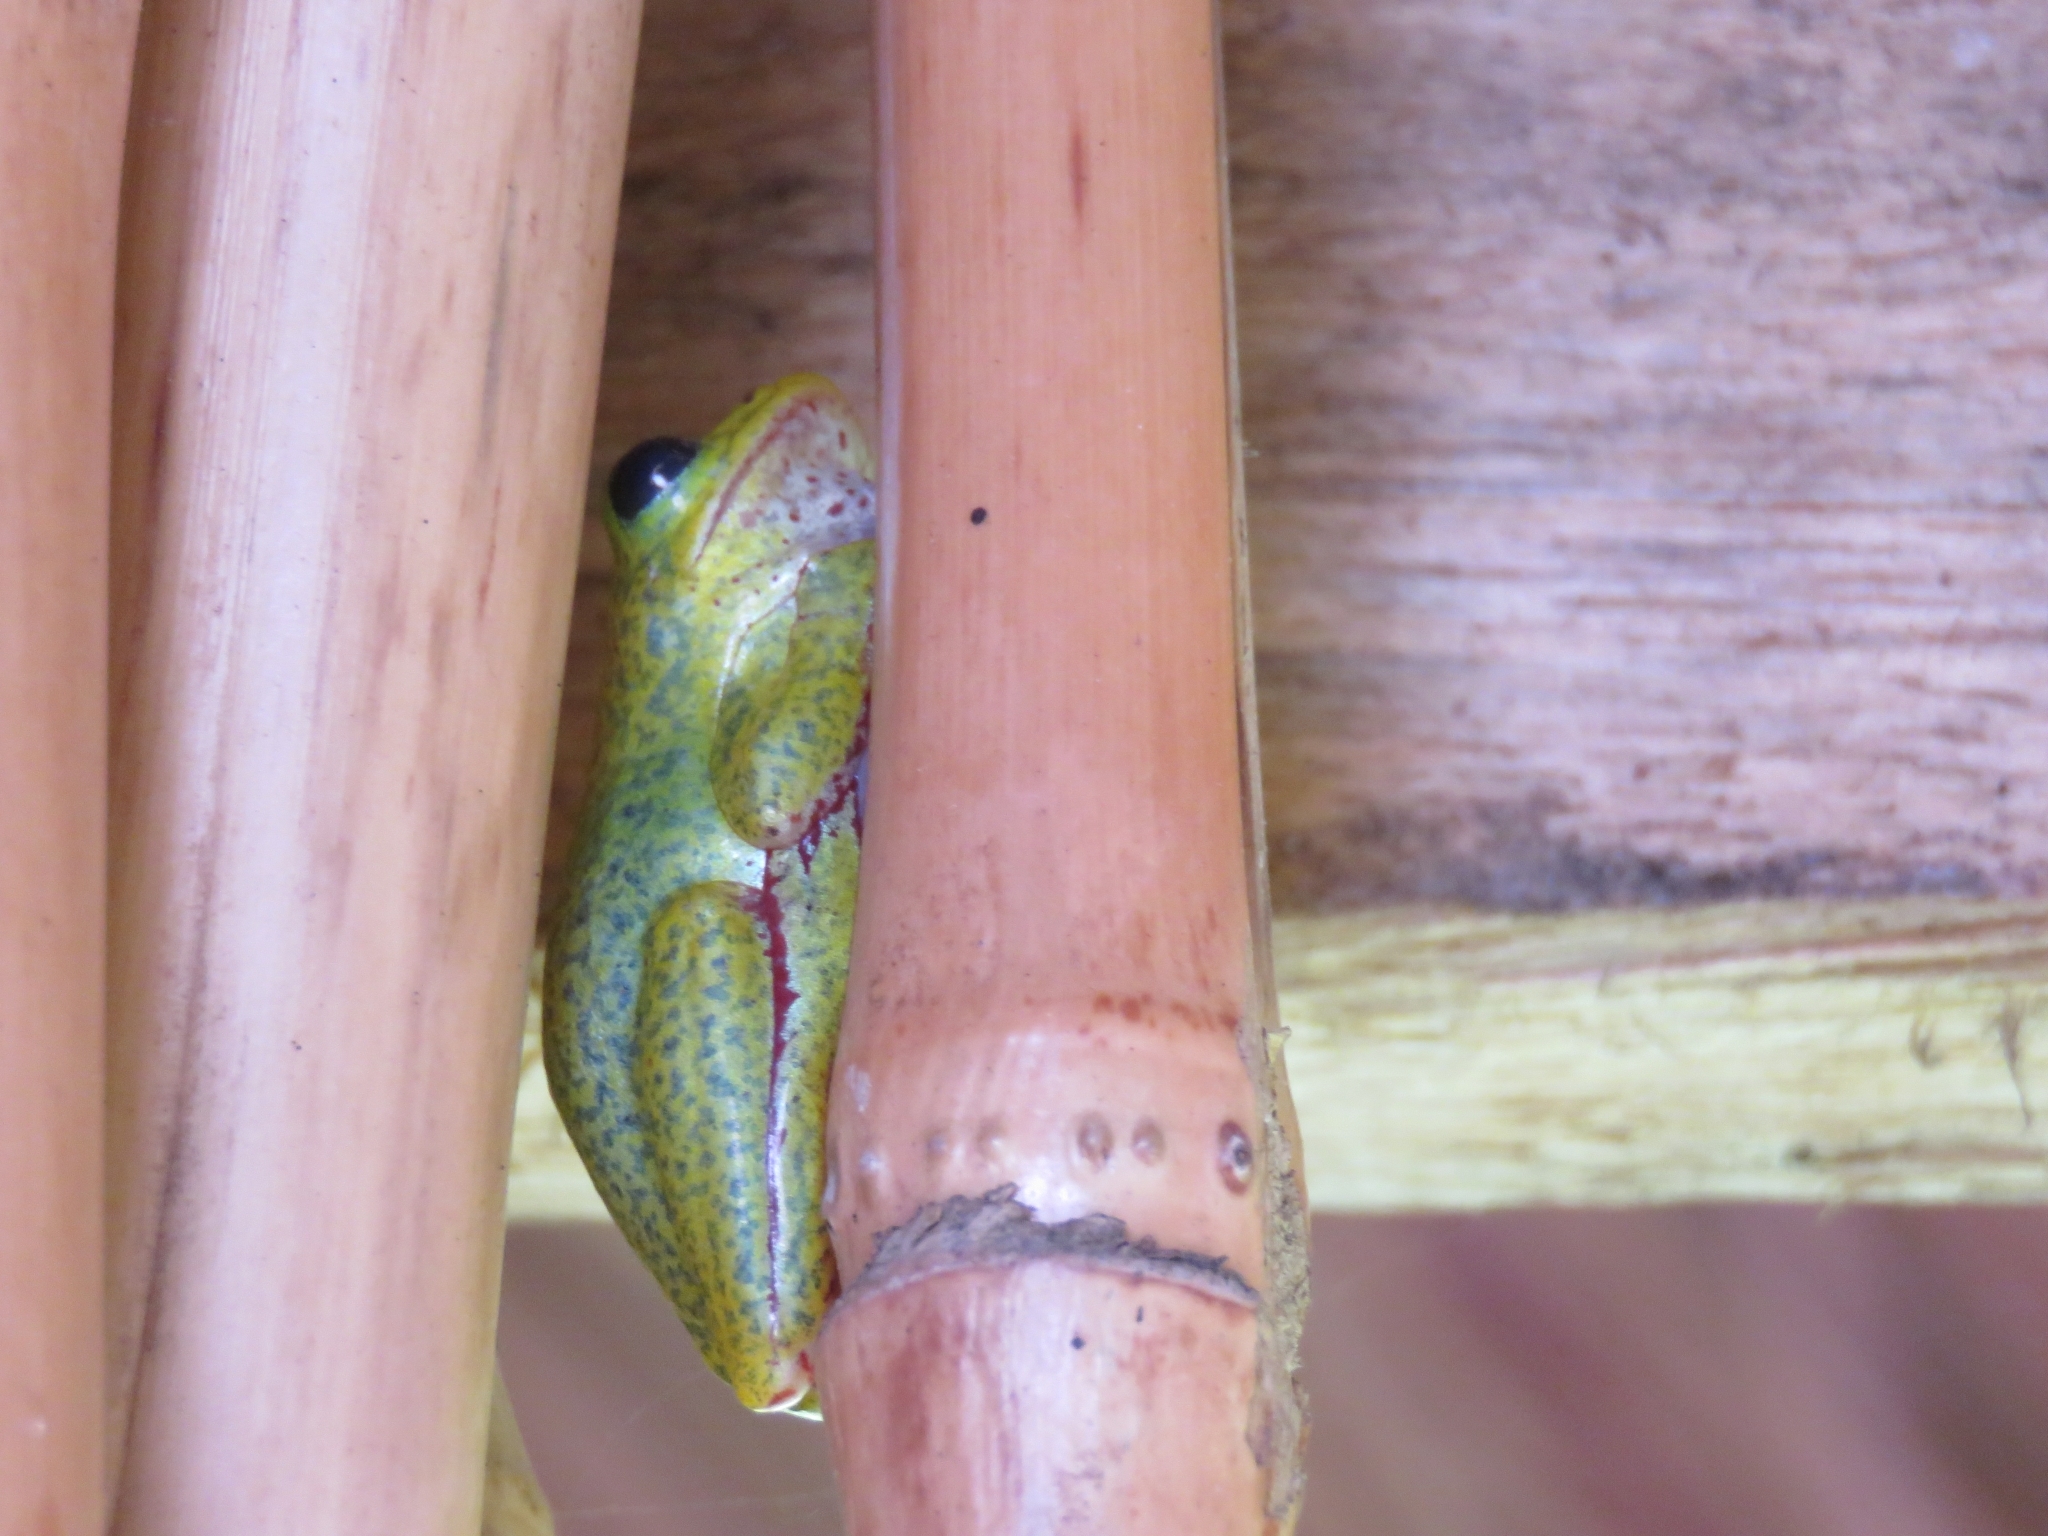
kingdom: Animalia
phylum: Chordata
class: Amphibia
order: Anura
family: Hyperoliidae
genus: Hyperolius
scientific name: Hyperolius viridiflavus
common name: Common reed frog
